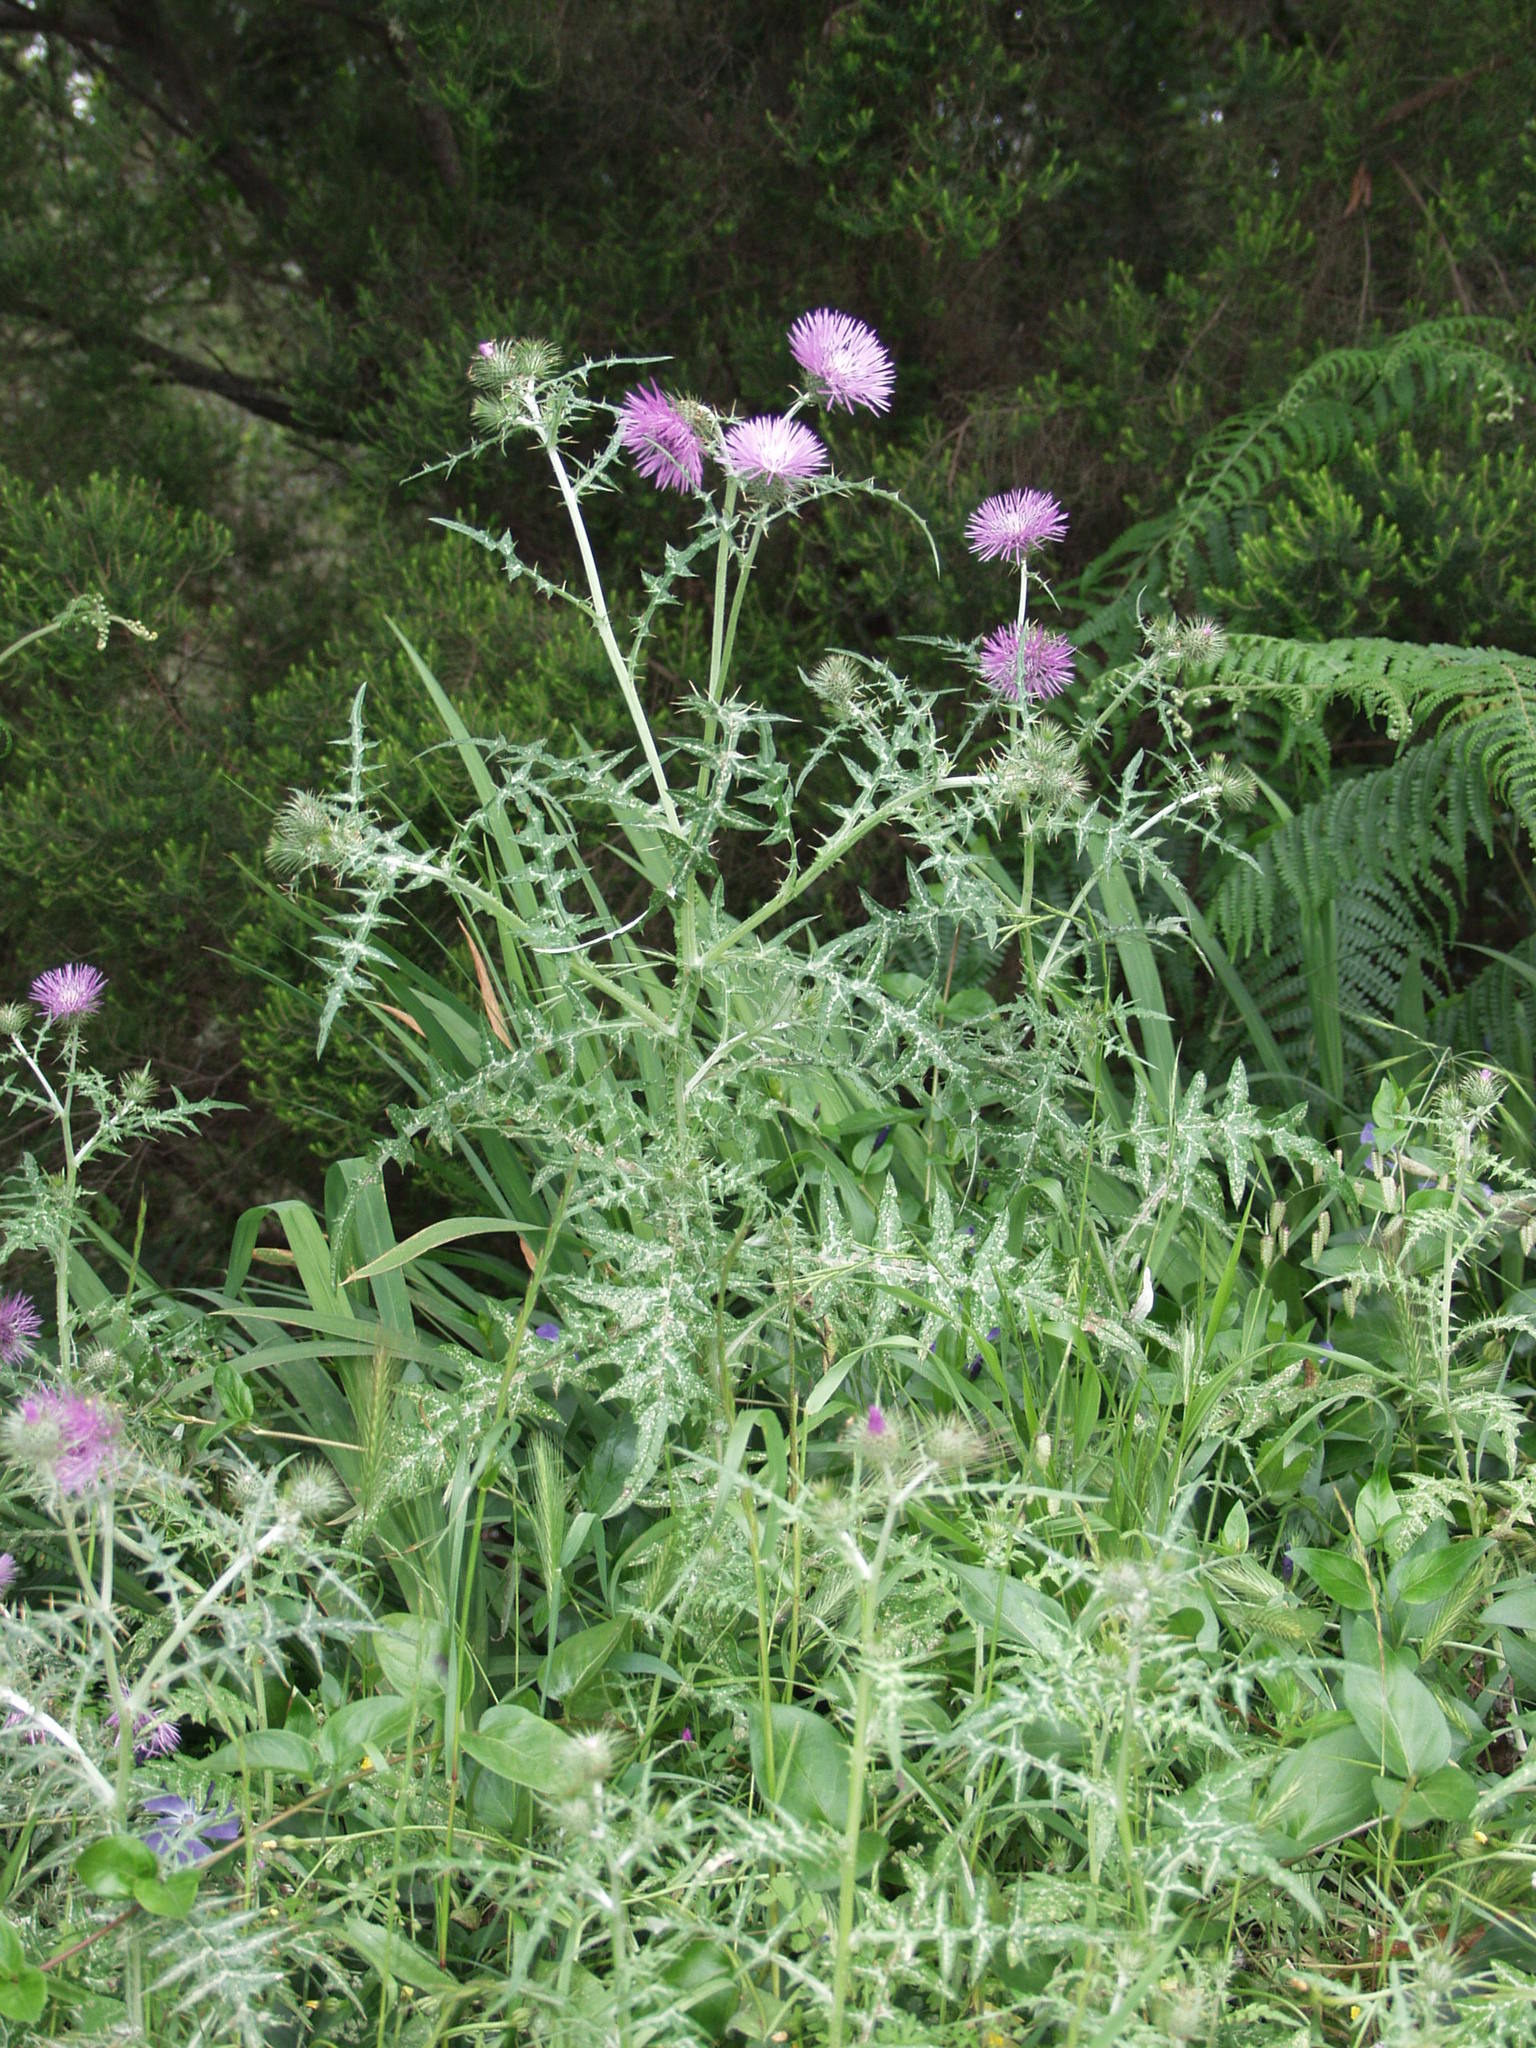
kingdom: Plantae
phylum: Tracheophyta
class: Magnoliopsida
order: Asterales
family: Asteraceae
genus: Galactites
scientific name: Galactites tomentosa
